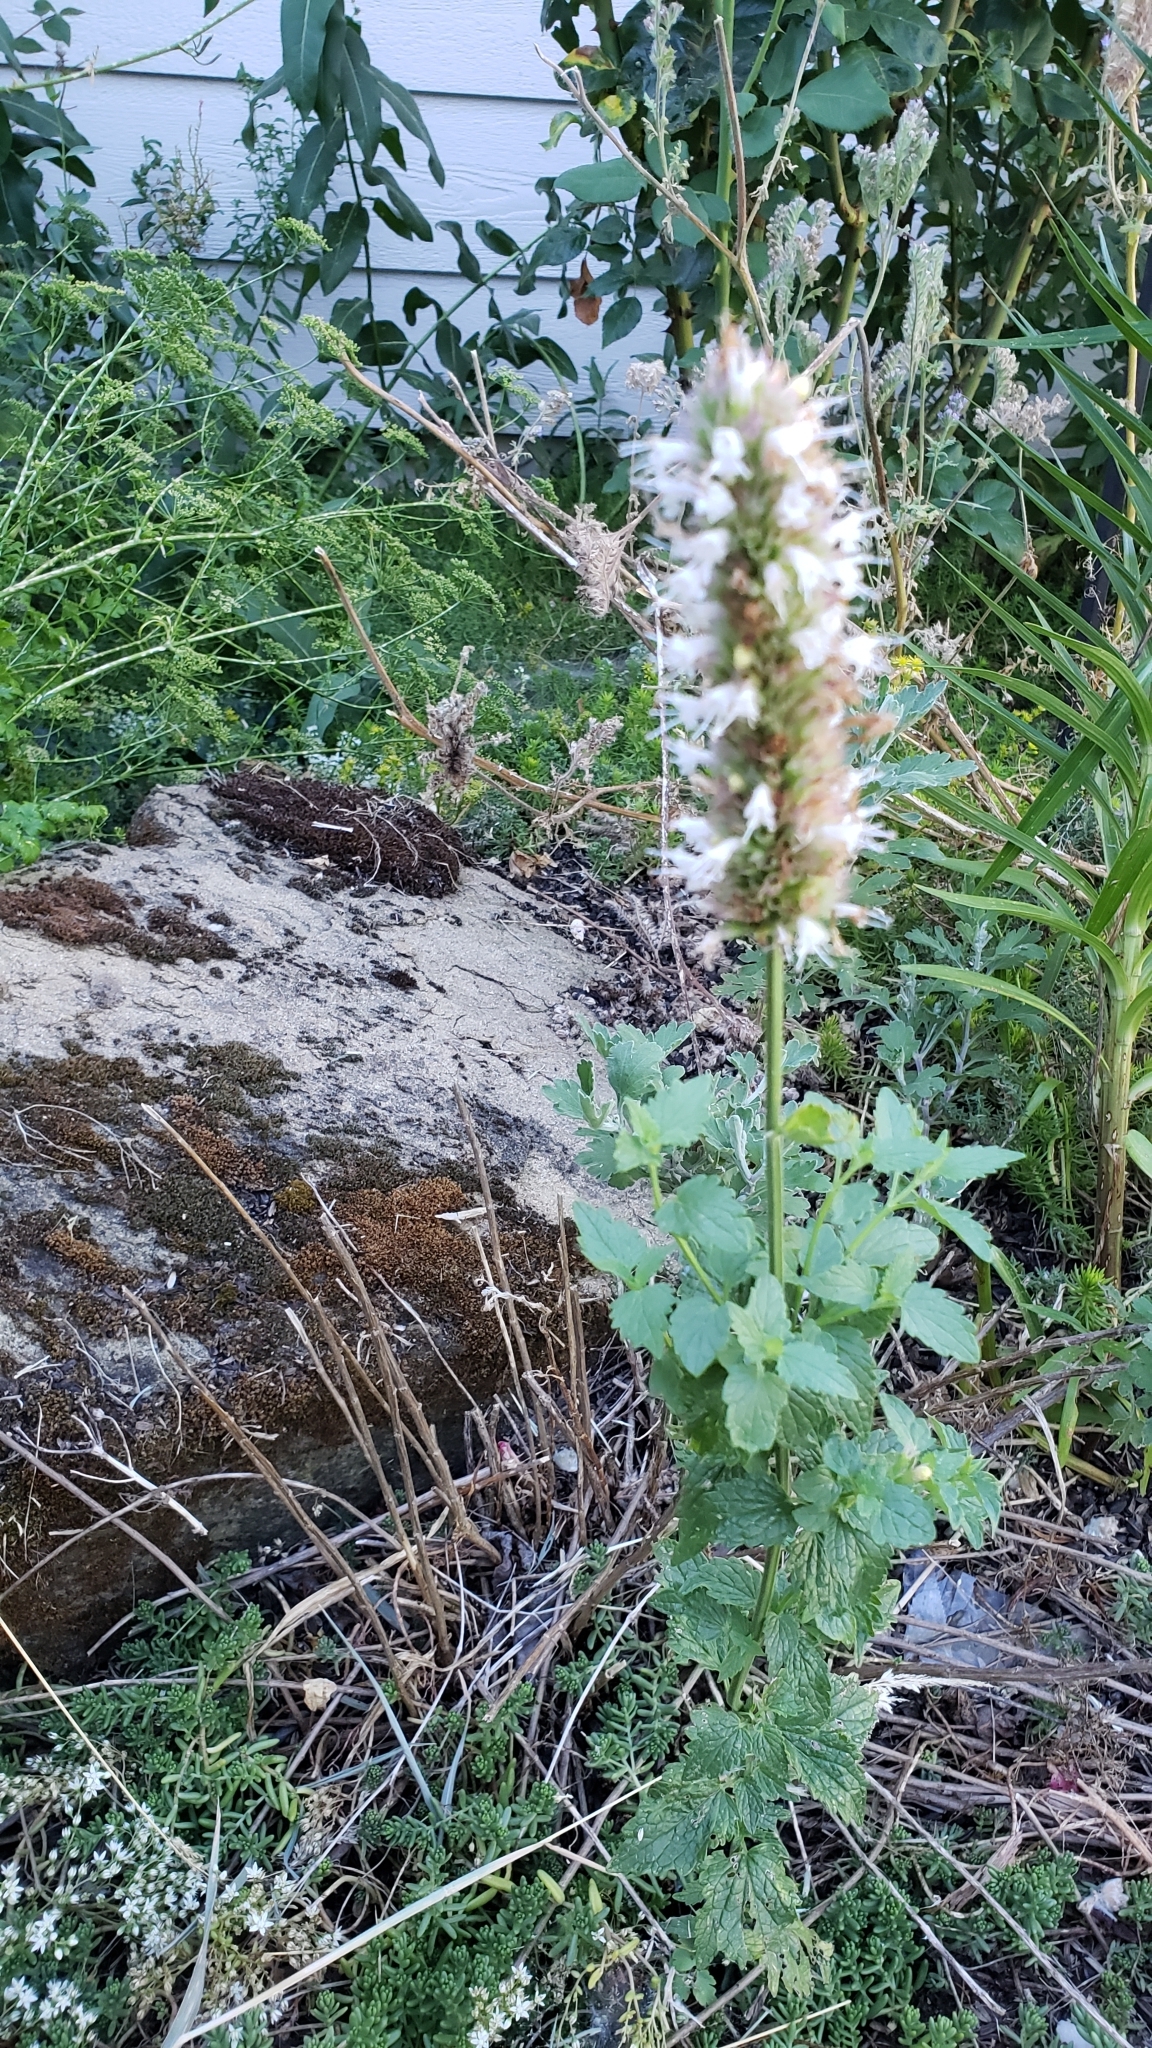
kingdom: Plantae
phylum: Tracheophyta
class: Magnoliopsida
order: Lamiales
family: Lamiaceae
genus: Agastache
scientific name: Agastache urticifolia
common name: Horsemint giant hyssop
